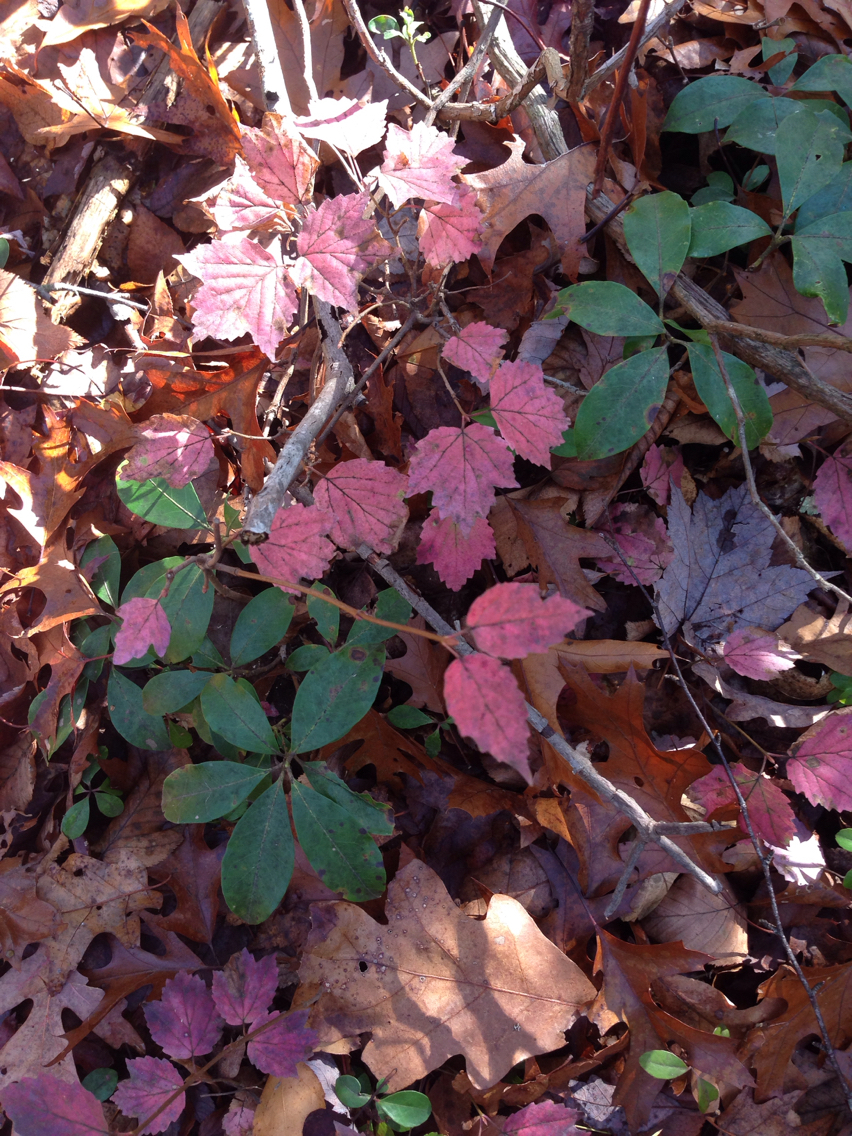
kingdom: Plantae
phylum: Tracheophyta
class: Magnoliopsida
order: Dipsacales
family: Viburnaceae
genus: Viburnum
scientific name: Viburnum acerifolium
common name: Dockmackie
